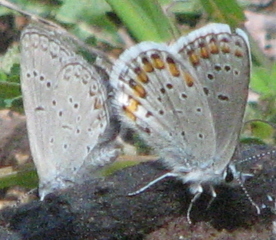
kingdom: Animalia
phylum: Arthropoda
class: Insecta
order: Lepidoptera
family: Lycaenidae
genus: Lycaeides
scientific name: Lycaeides melissa
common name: Melissa blue
